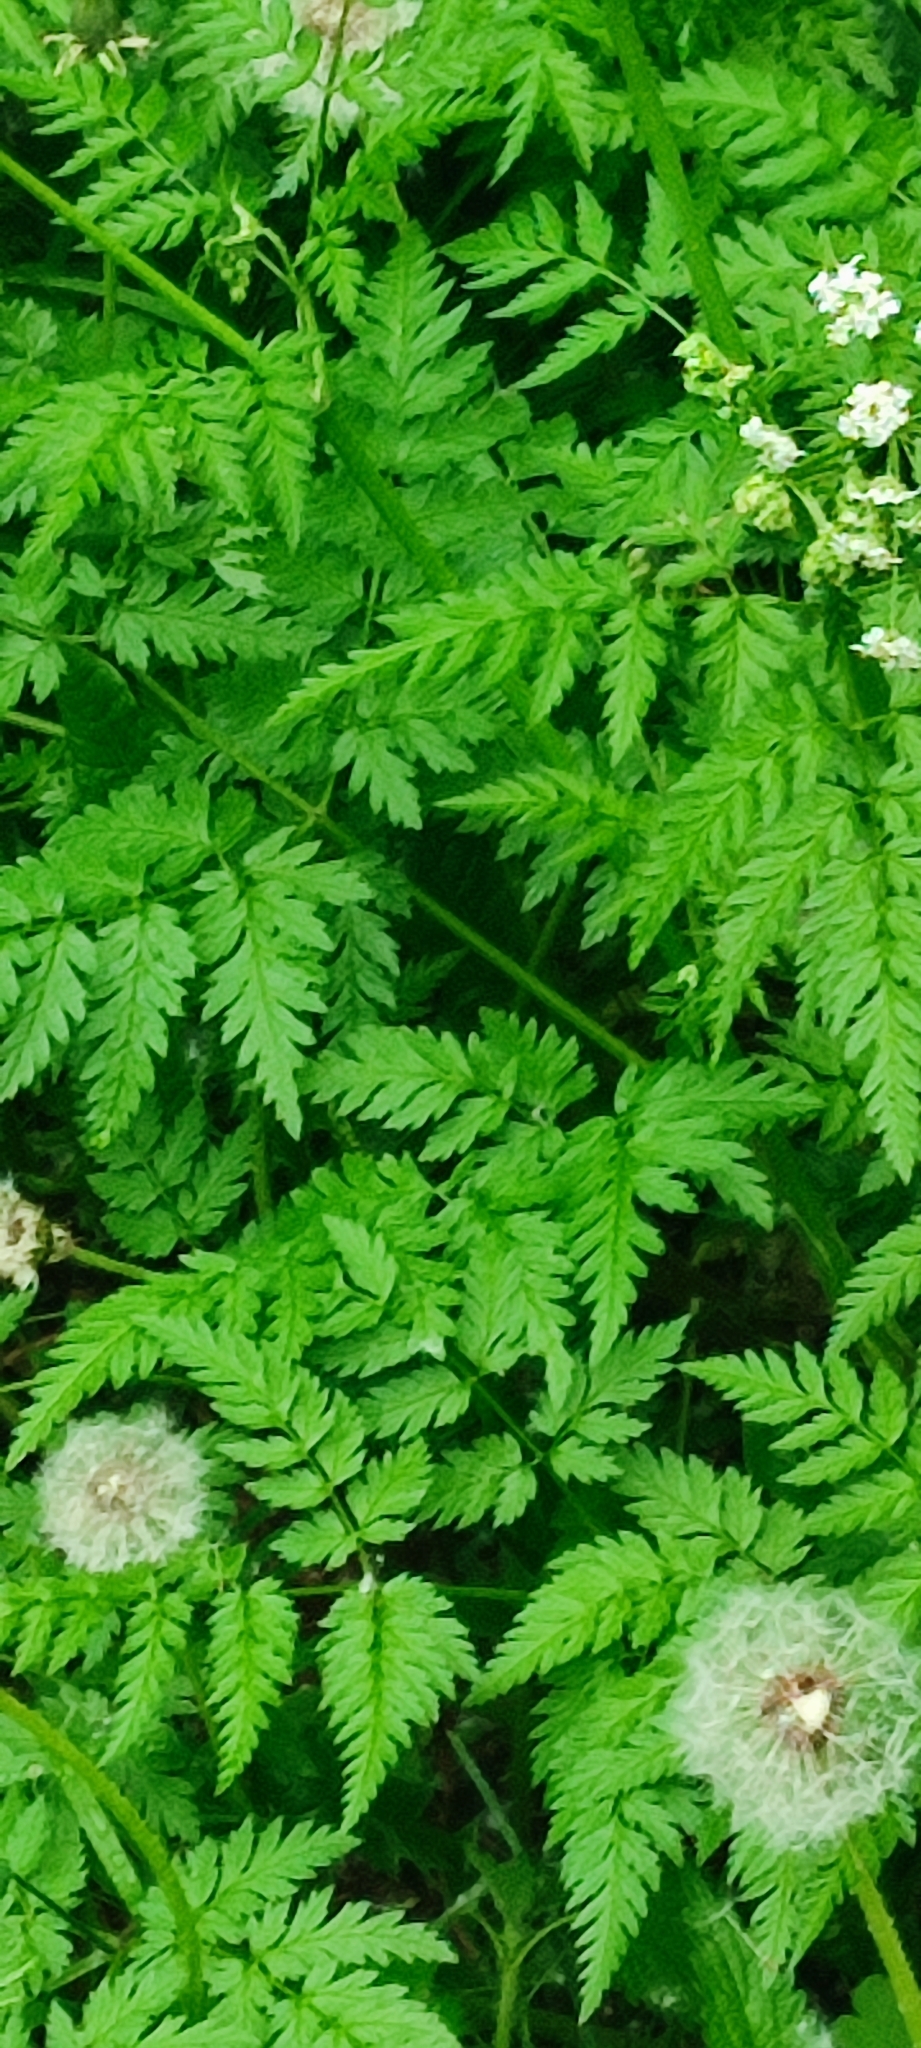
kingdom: Plantae
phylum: Tracheophyta
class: Magnoliopsida
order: Apiales
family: Apiaceae
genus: Anthriscus
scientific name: Anthriscus sylvestris
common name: Cow parsley
